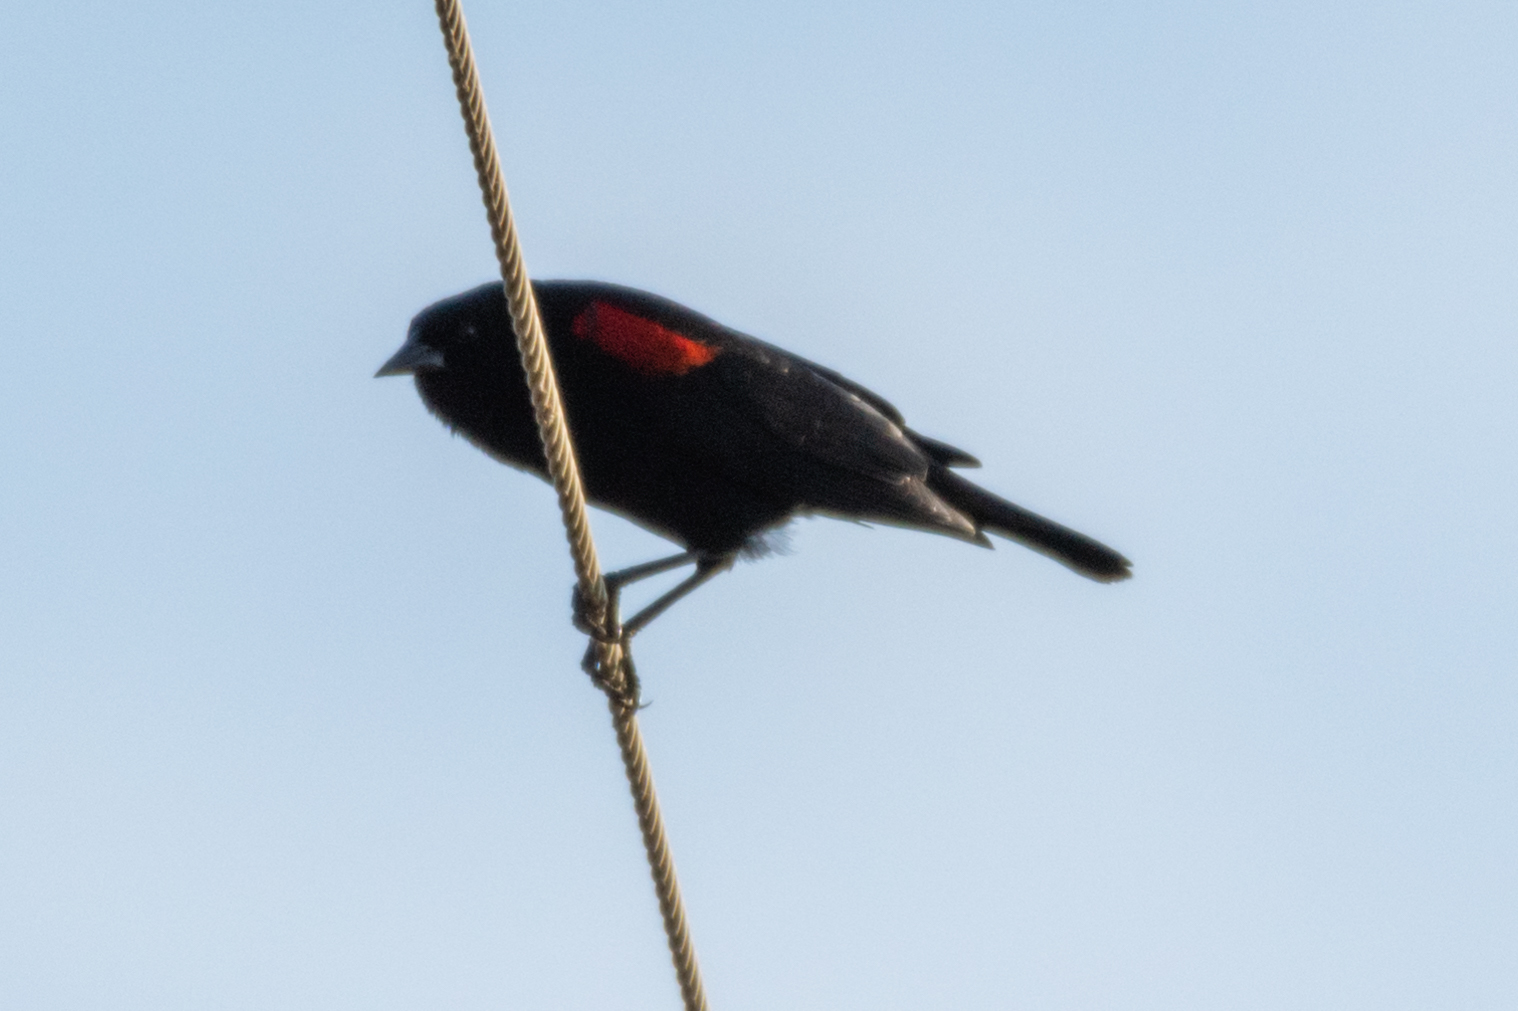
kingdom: Animalia
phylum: Chordata
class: Aves
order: Passeriformes
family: Icteridae
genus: Agelaius
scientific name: Agelaius phoeniceus
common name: Red-winged blackbird
